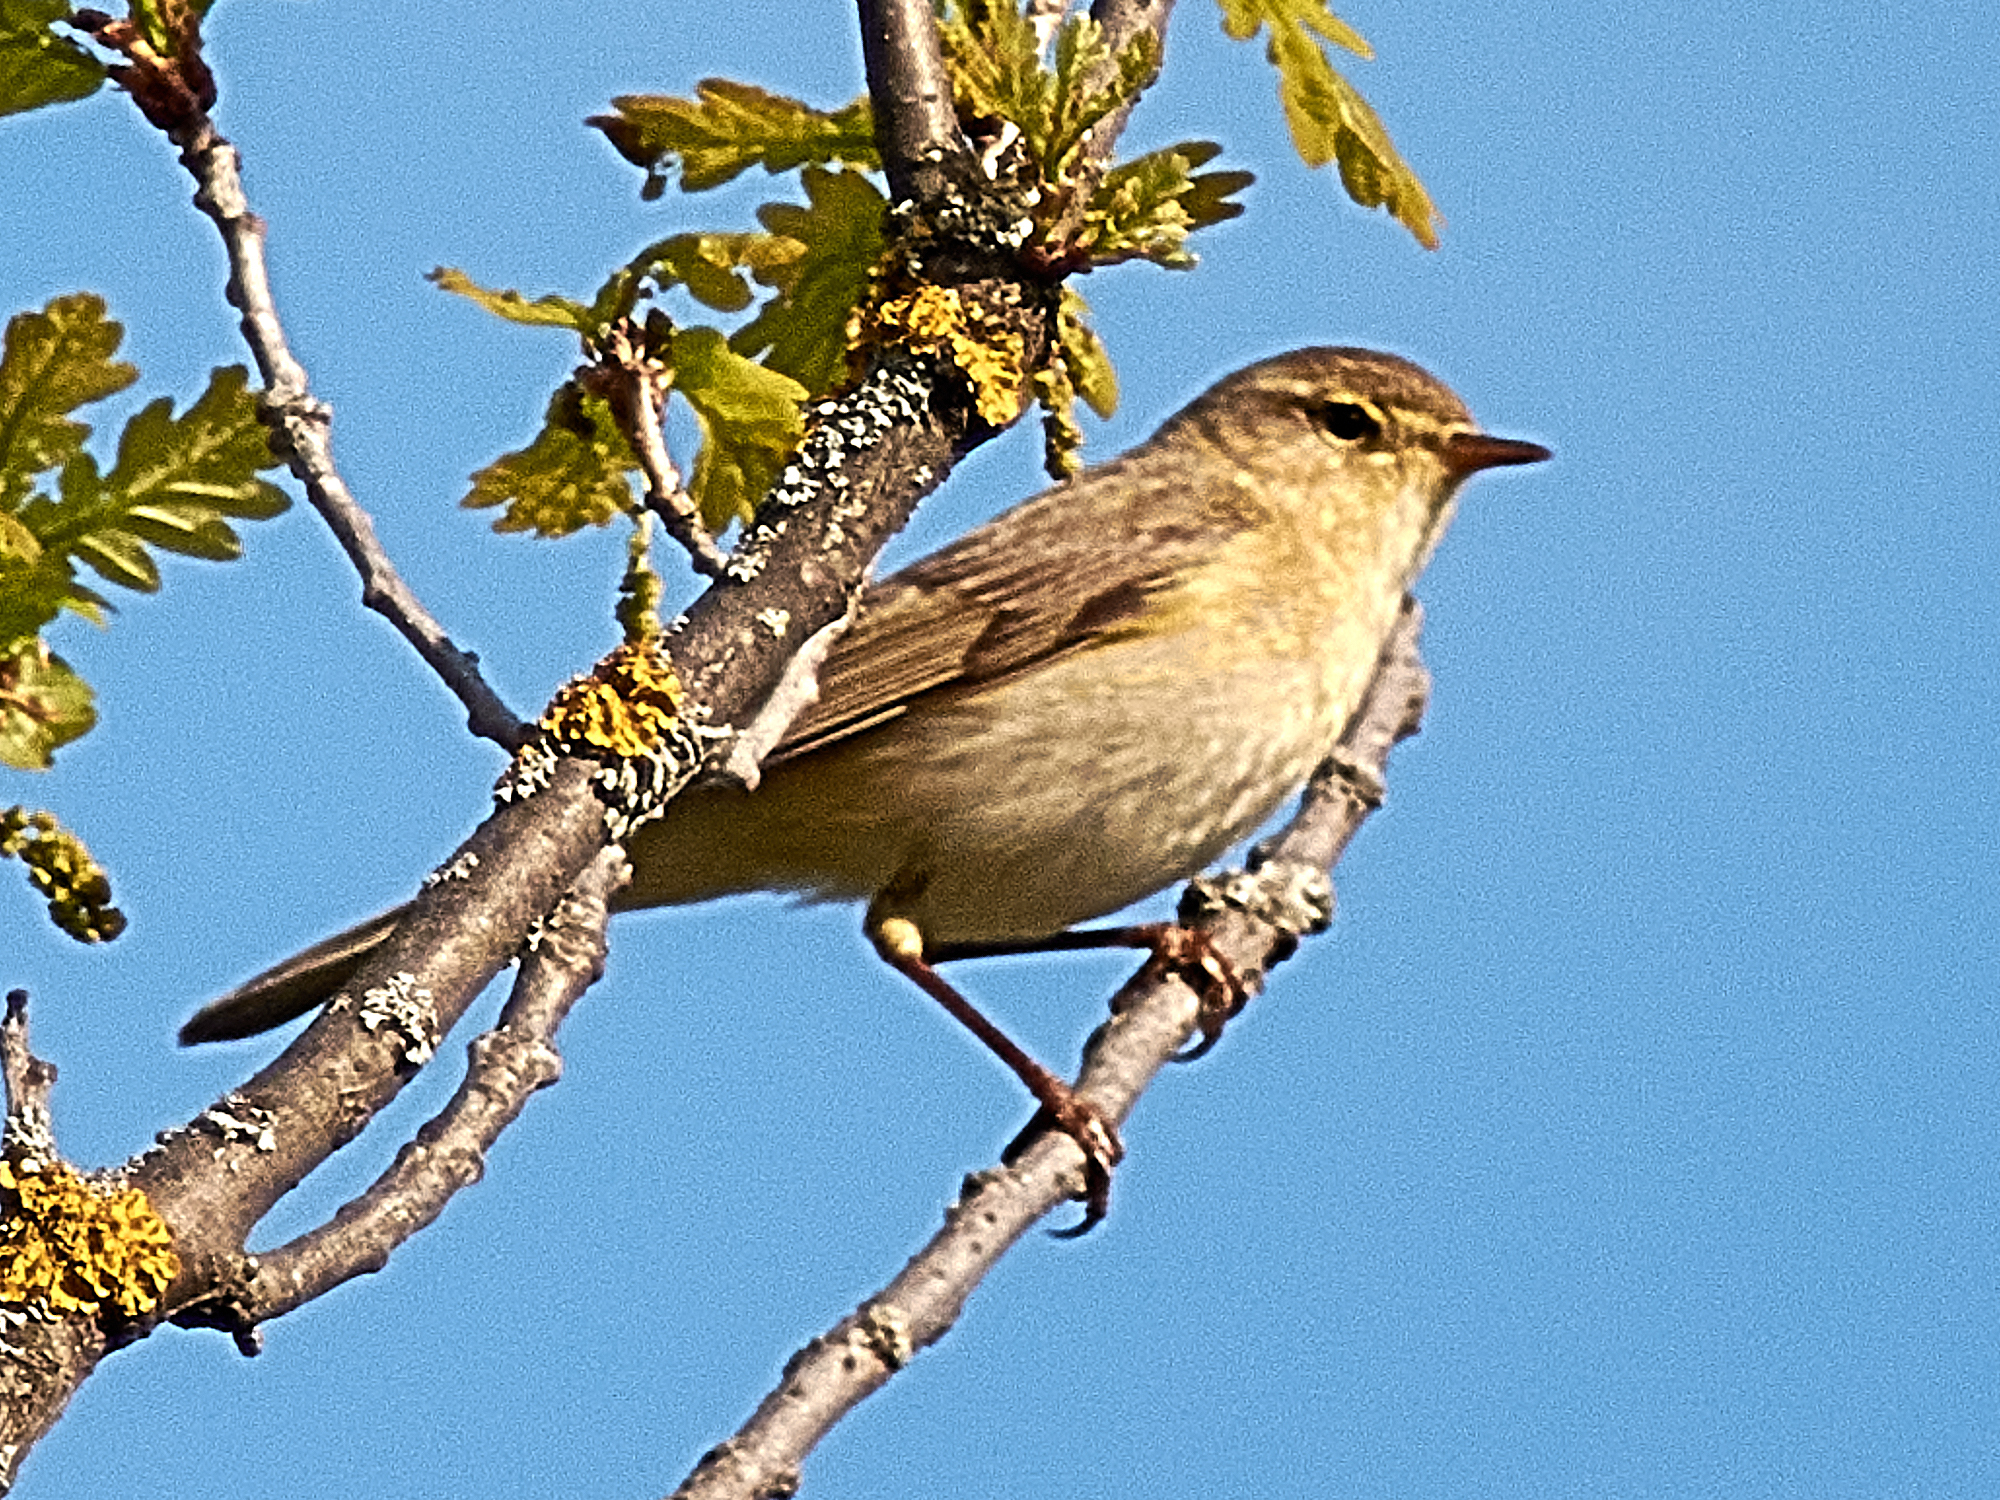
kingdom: Animalia
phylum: Chordata
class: Aves
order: Passeriformes
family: Phylloscopidae
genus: Phylloscopus
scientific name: Phylloscopus trochilus
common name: Willow warbler
